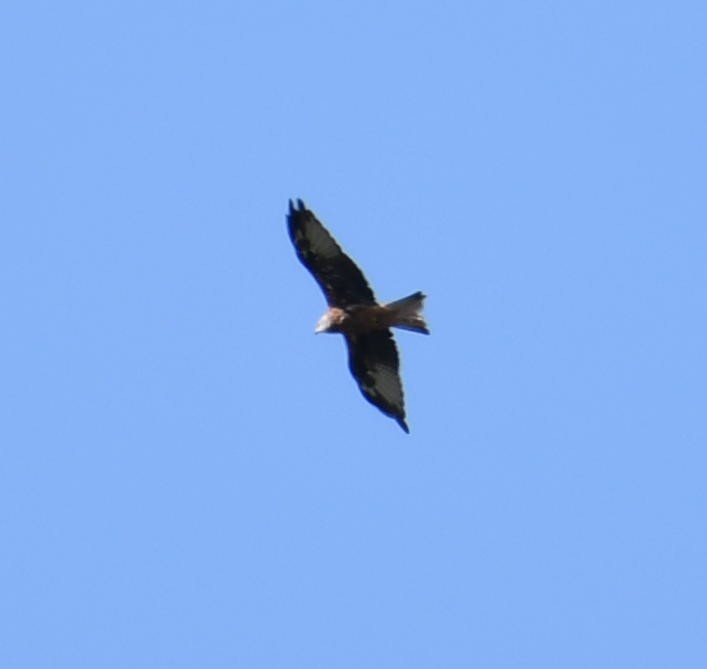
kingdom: Animalia
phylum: Chordata
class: Aves
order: Accipitriformes
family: Accipitridae
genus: Milvus
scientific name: Milvus milvus
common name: Red kite
